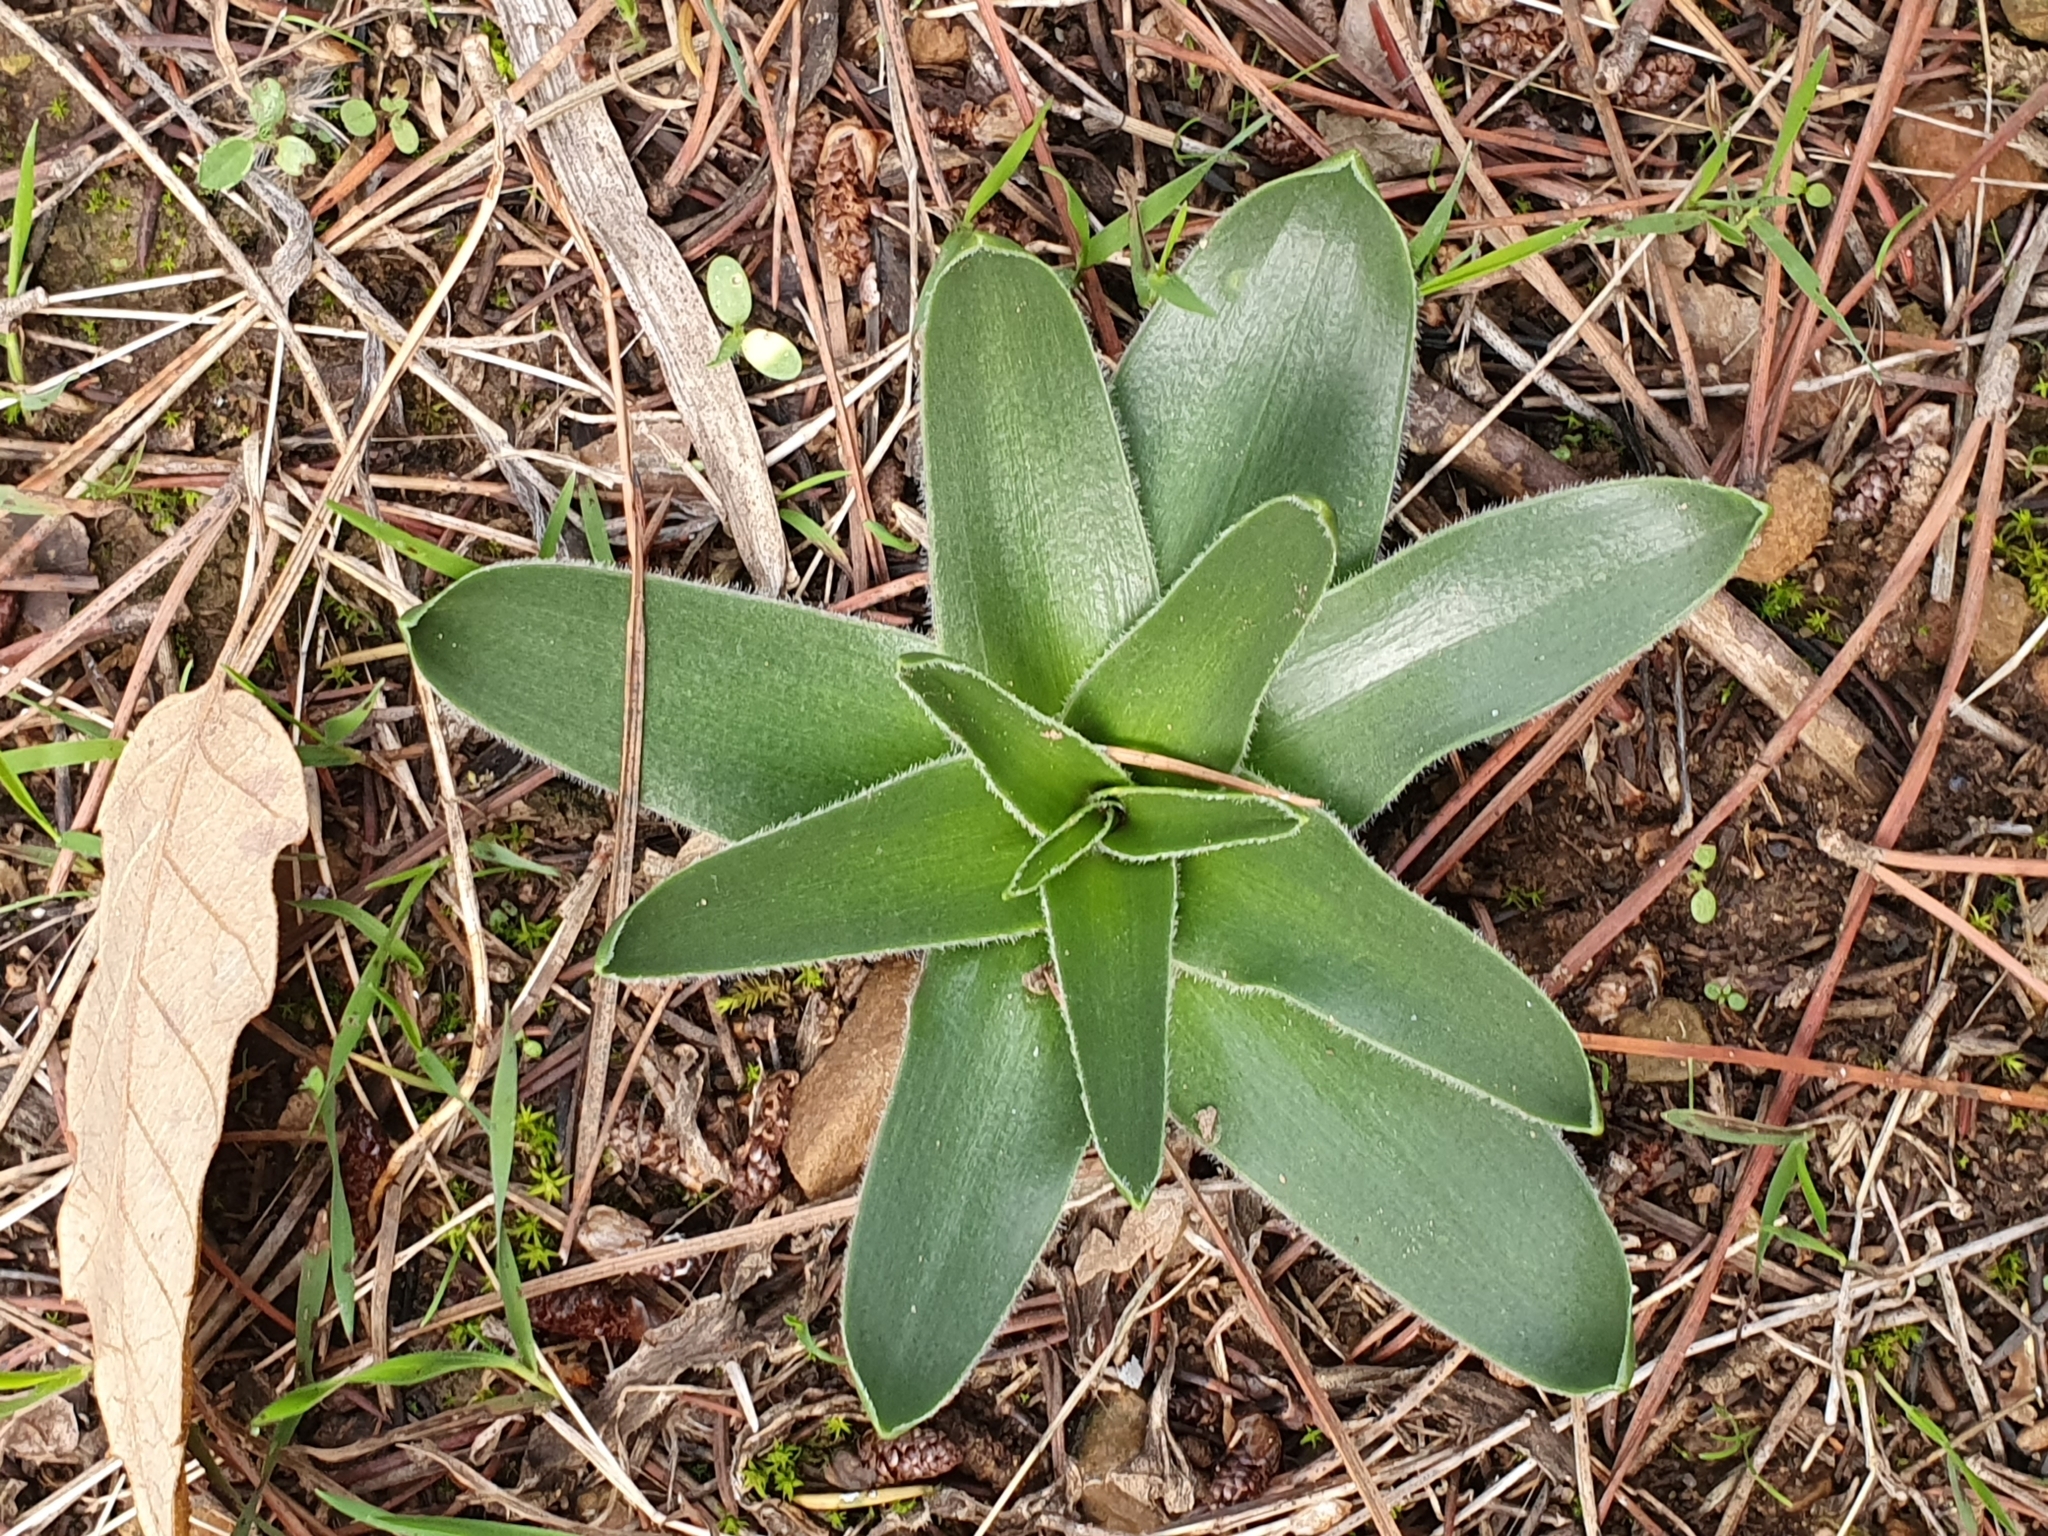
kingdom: Plantae
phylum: Tracheophyta
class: Liliopsida
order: Asparagales
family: Asparagaceae
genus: Scilla
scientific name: Scilla peruviana
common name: Portuguese squill
